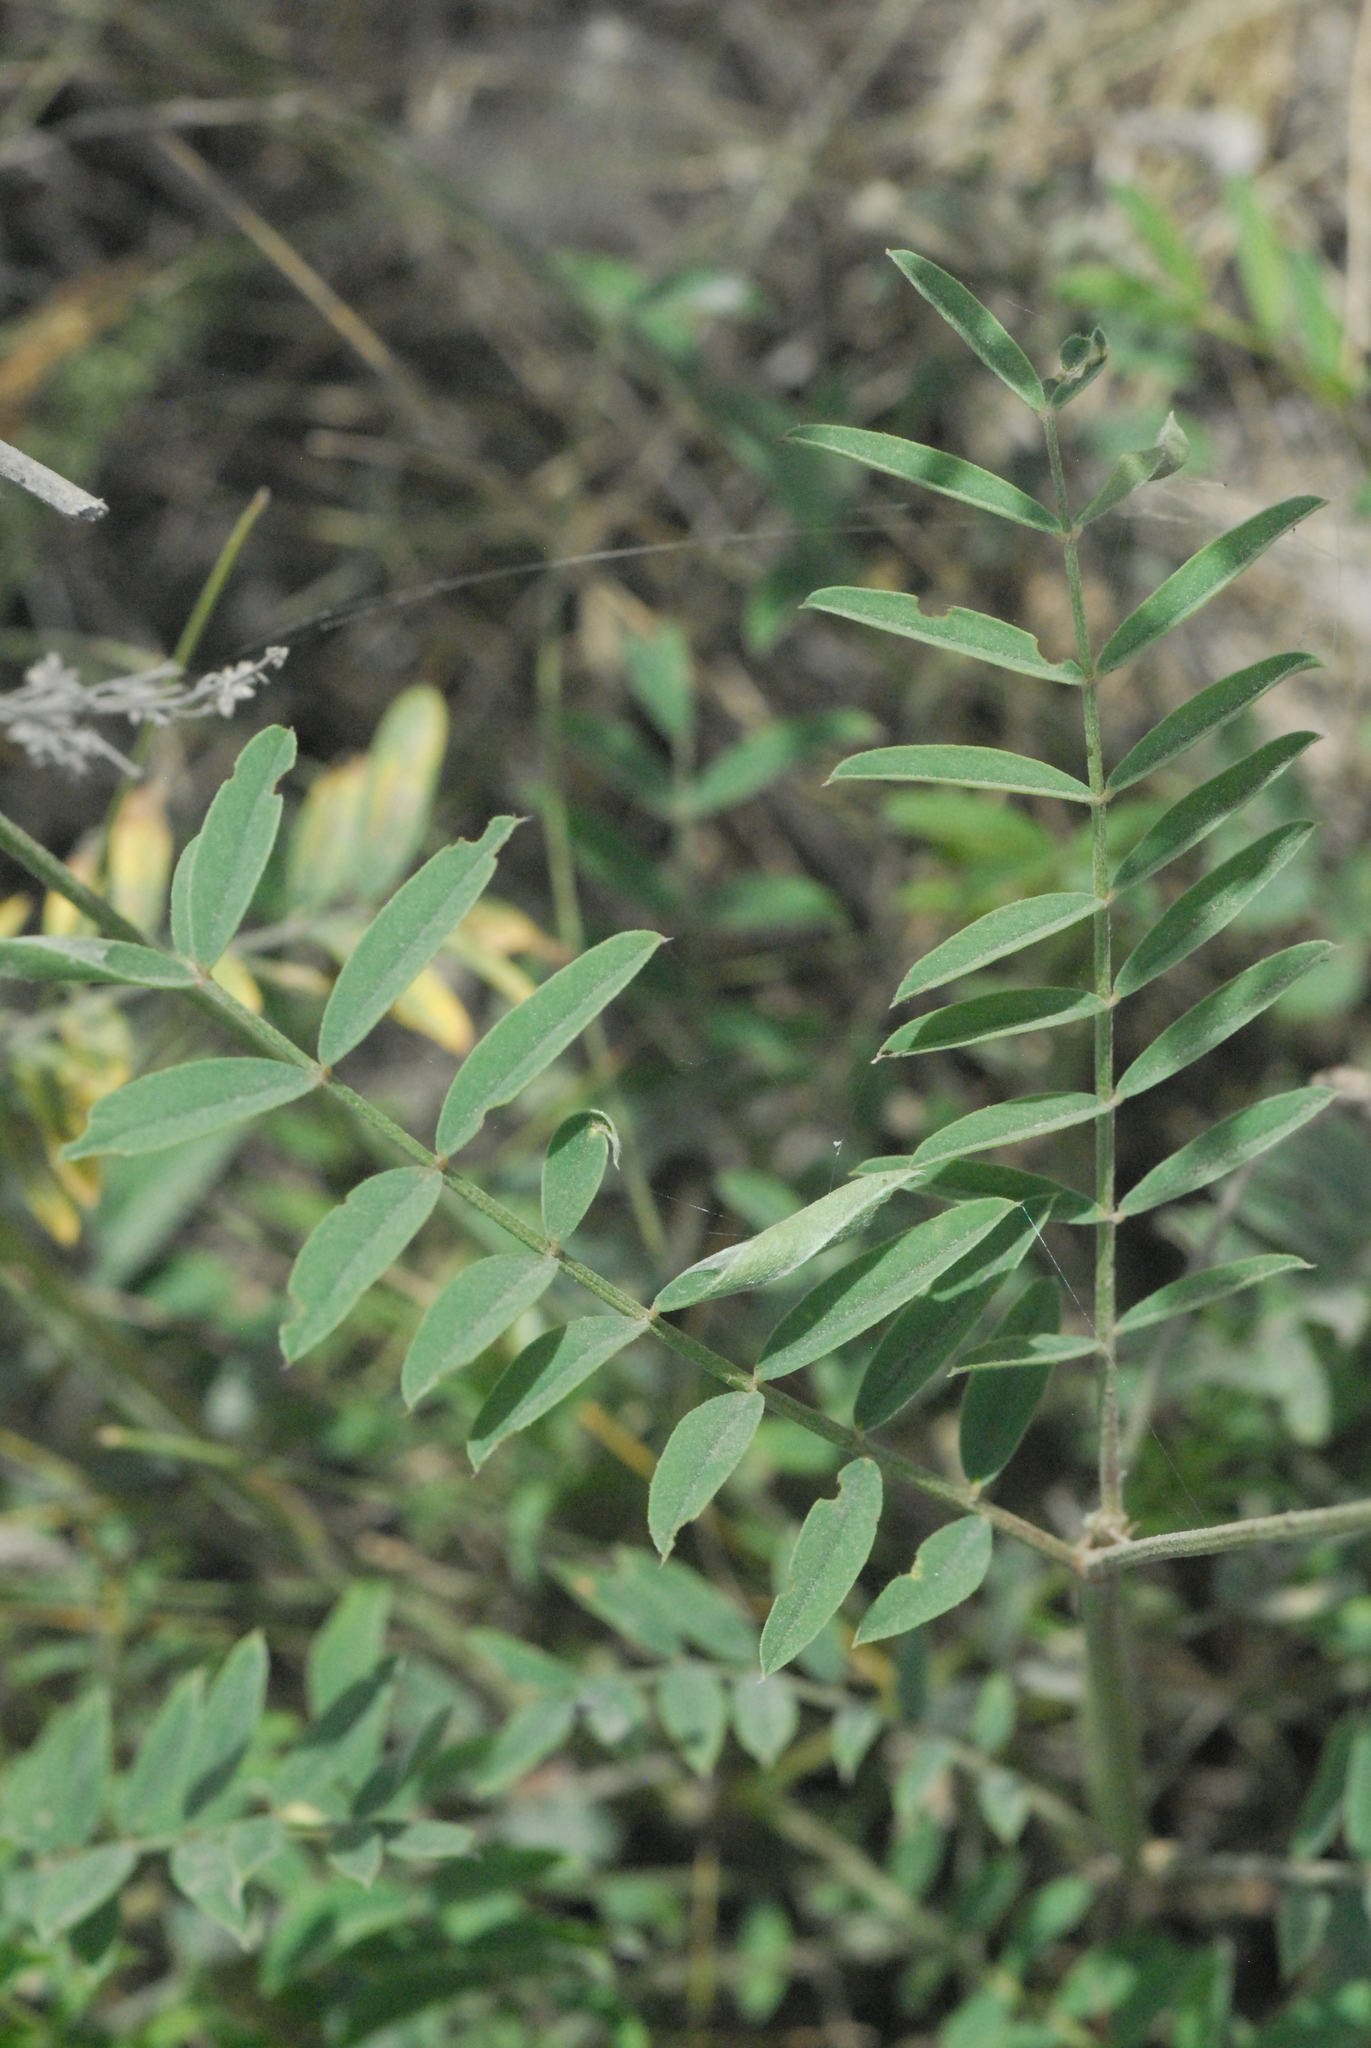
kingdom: Plantae
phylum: Tracheophyta
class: Magnoliopsida
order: Fabales
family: Fabaceae
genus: Onobrychis
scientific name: Onobrychis viciifolia
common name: Sainfoin
